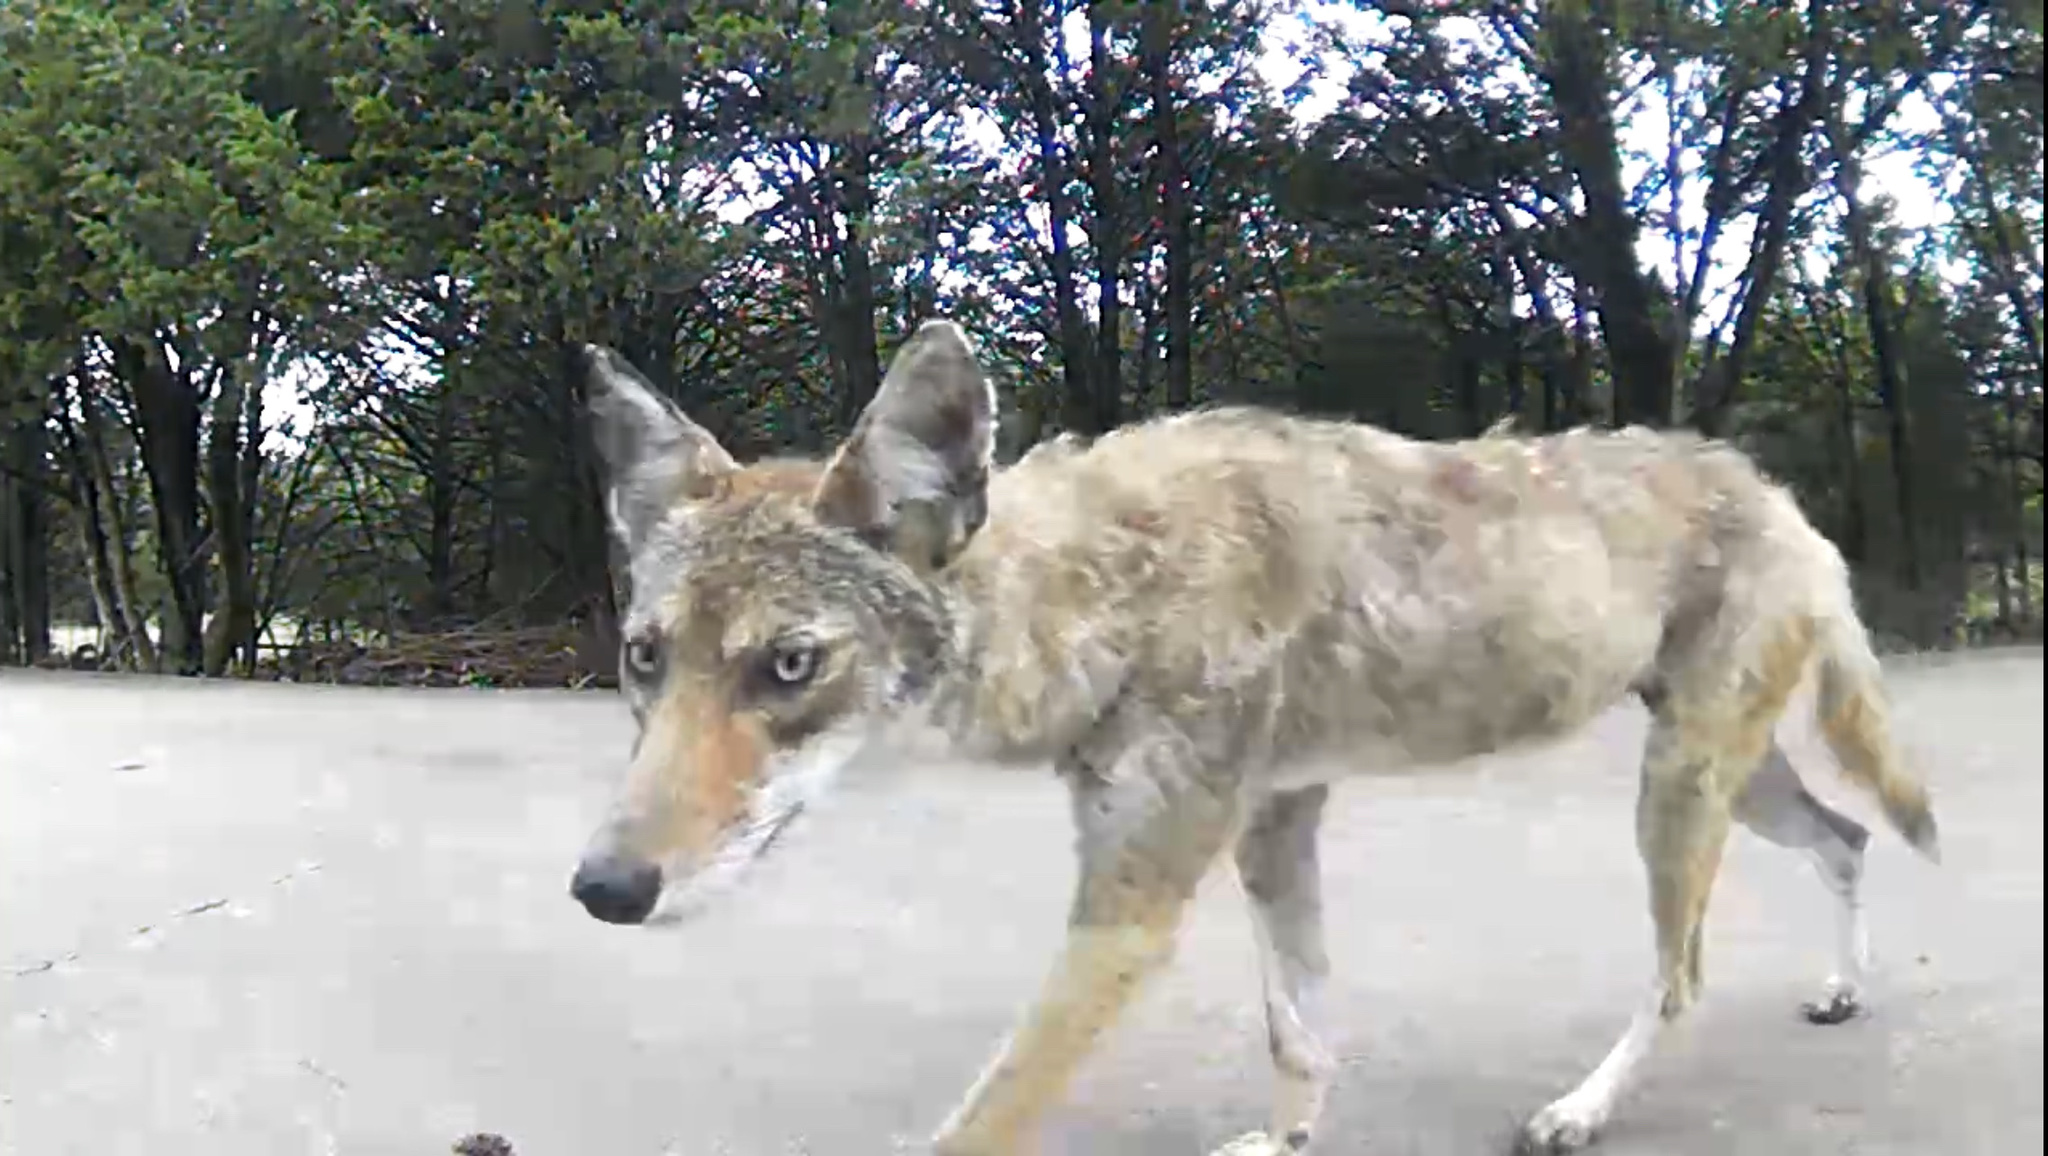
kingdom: Animalia
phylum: Chordata
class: Mammalia
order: Carnivora
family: Canidae
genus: Canis
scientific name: Canis latrans
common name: Coyote
